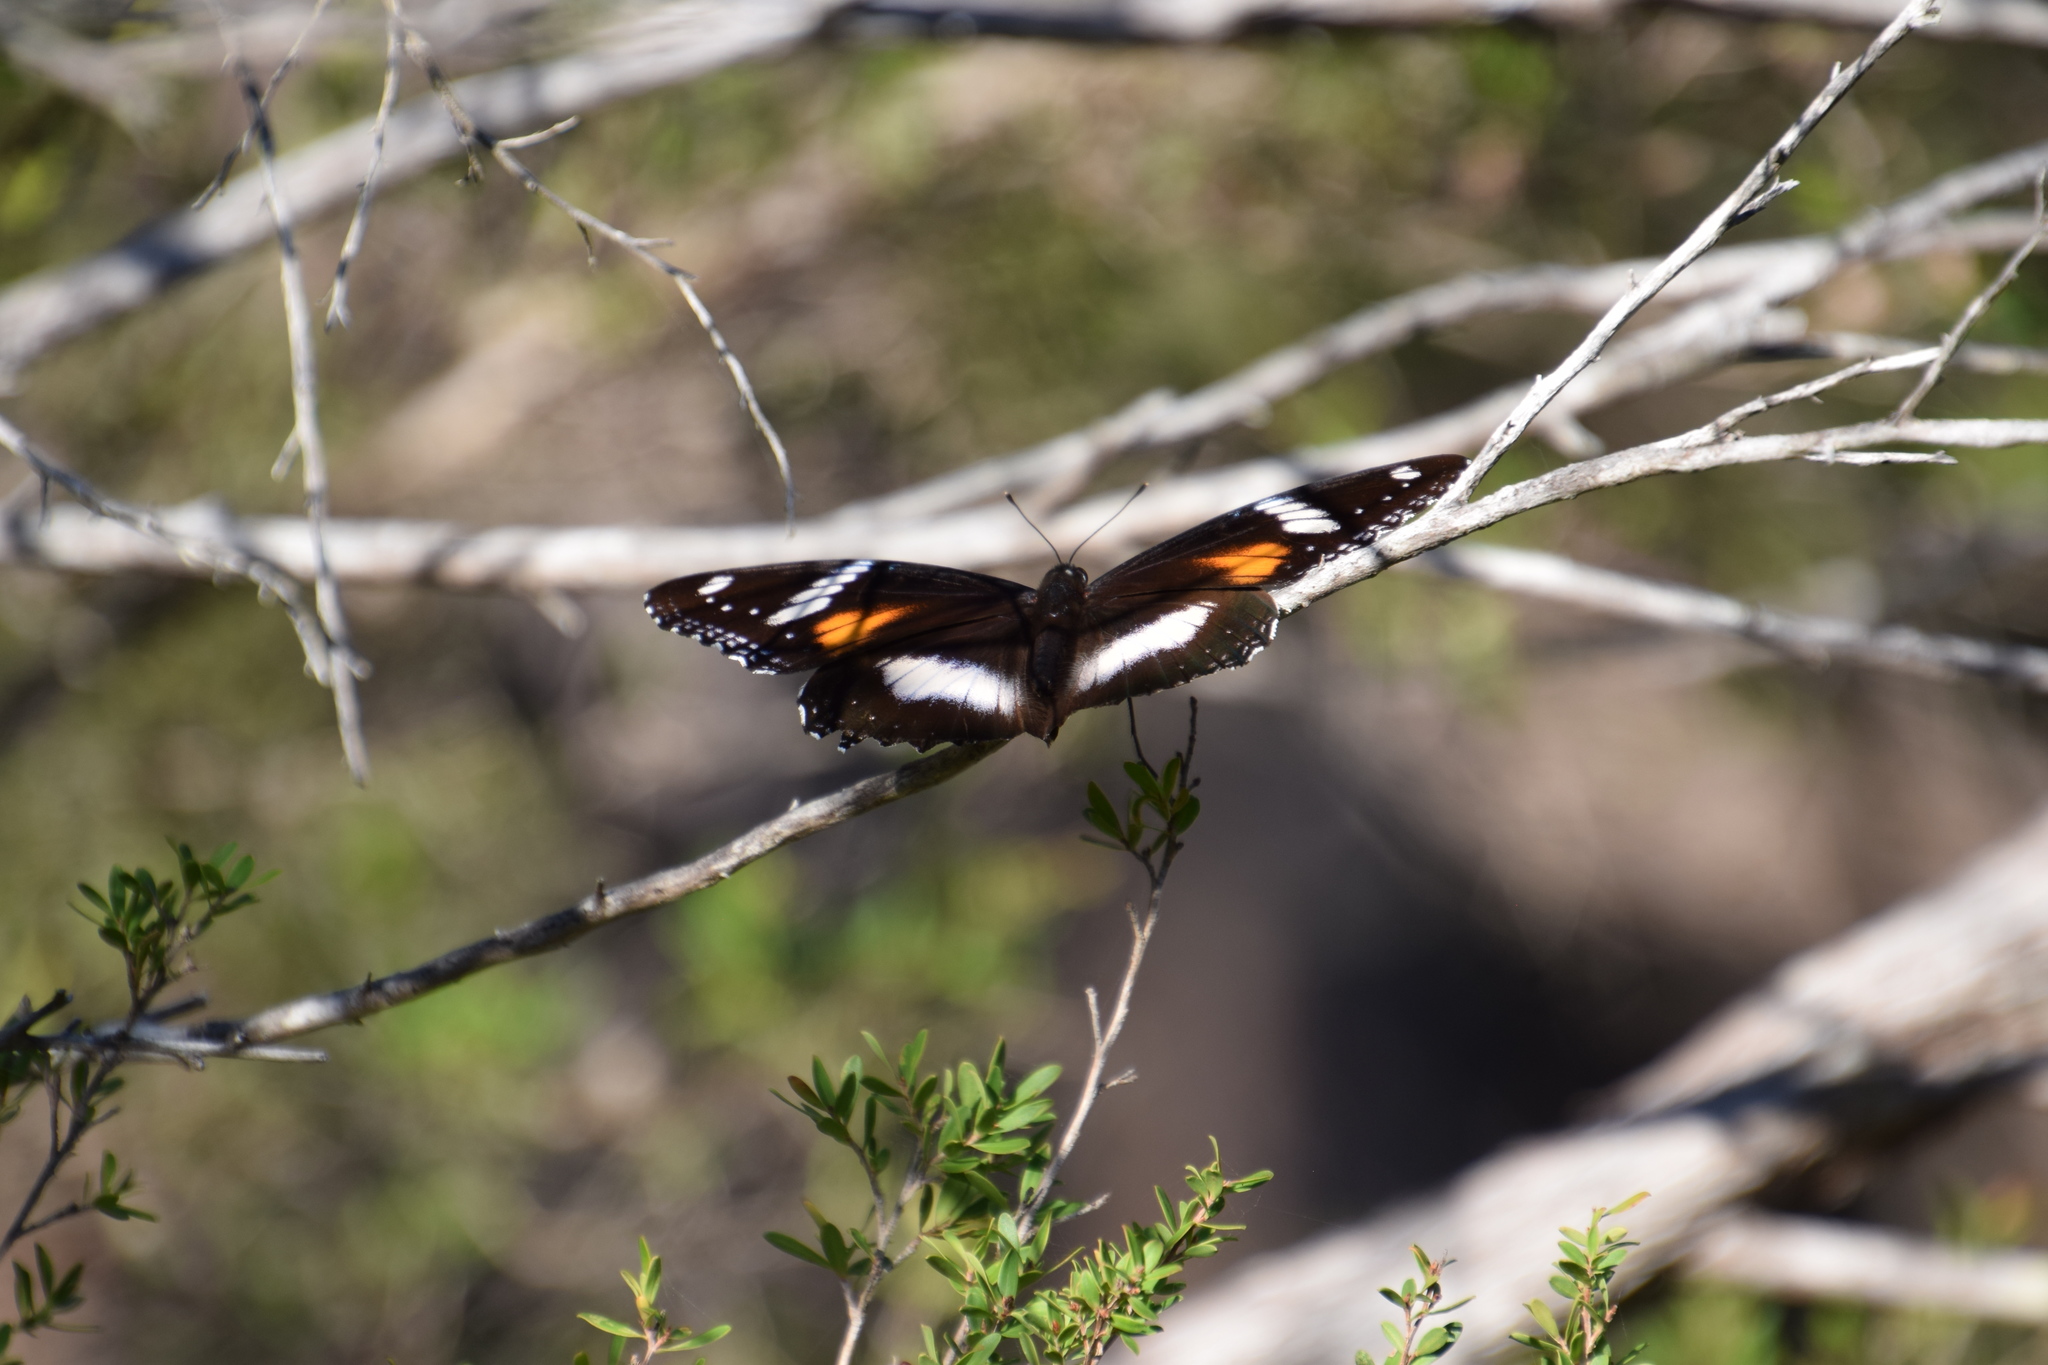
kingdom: Animalia
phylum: Arthropoda
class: Insecta
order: Lepidoptera
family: Nymphalidae
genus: Hypolimnas
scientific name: Hypolimnas bolina
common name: Great eggfly
